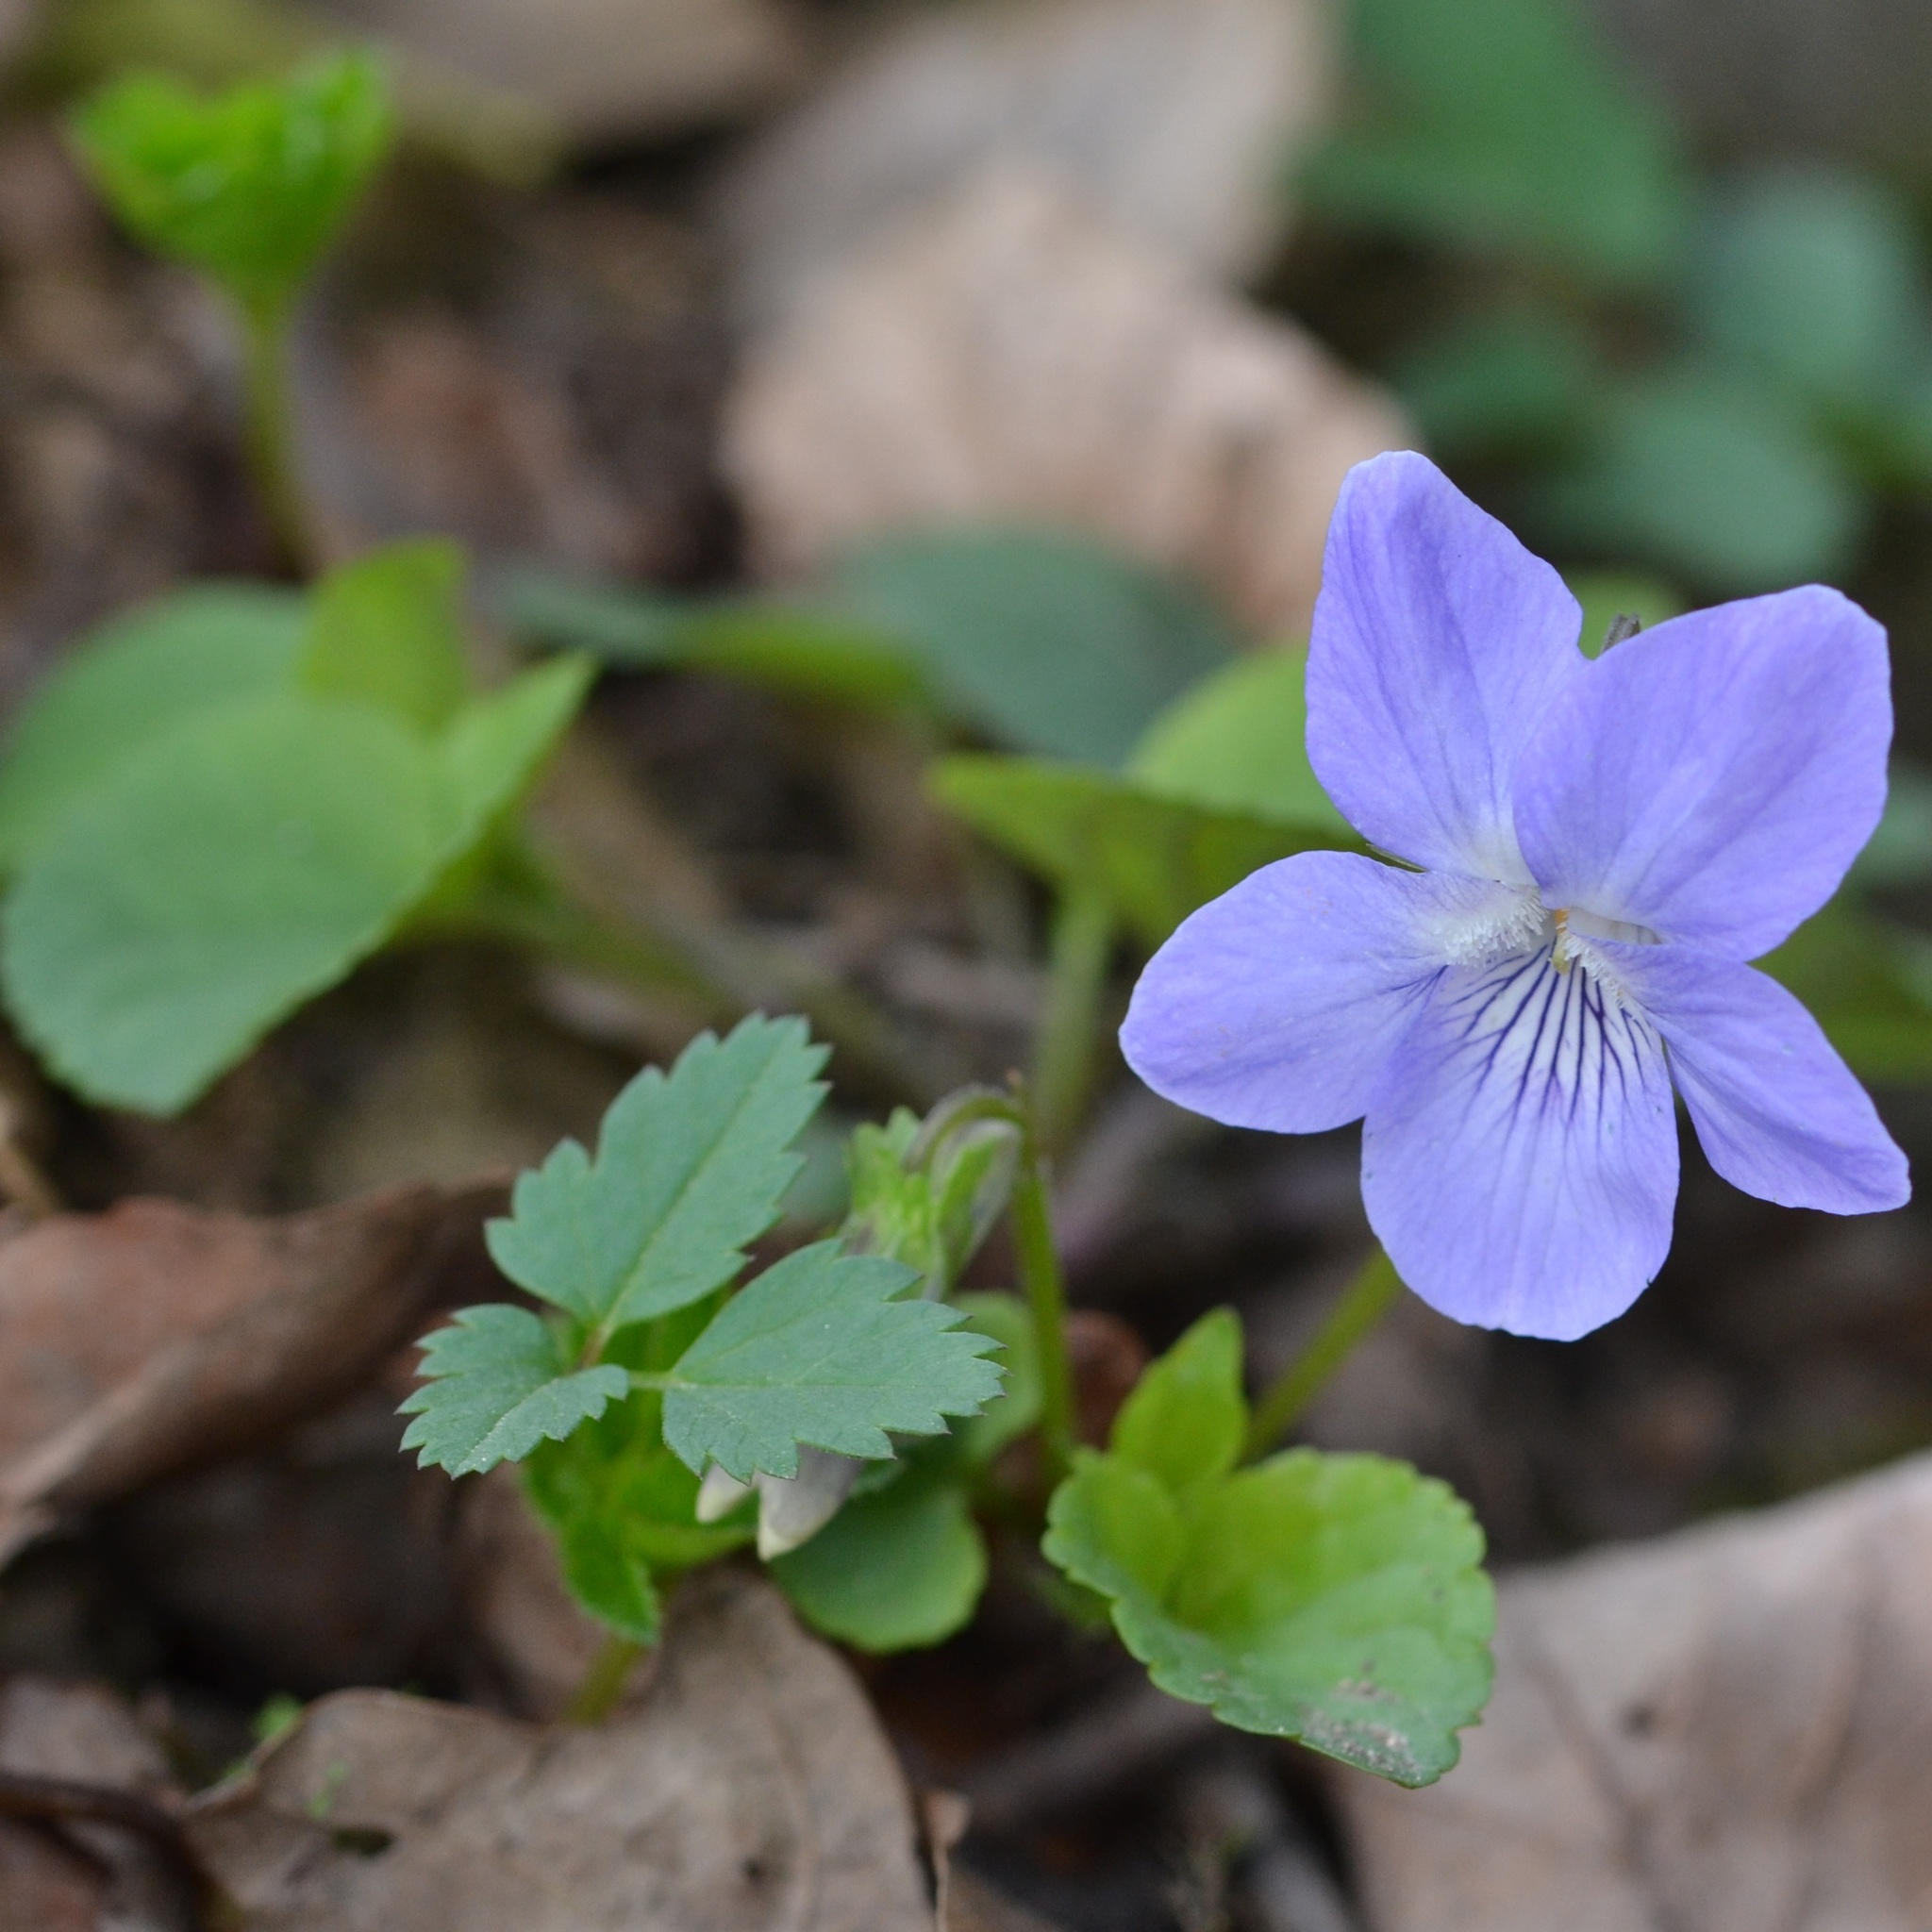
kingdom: Plantae
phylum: Tracheophyta
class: Magnoliopsida
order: Malpighiales
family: Violaceae
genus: Viola
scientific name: Viola riviniana
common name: Common dog-violet
